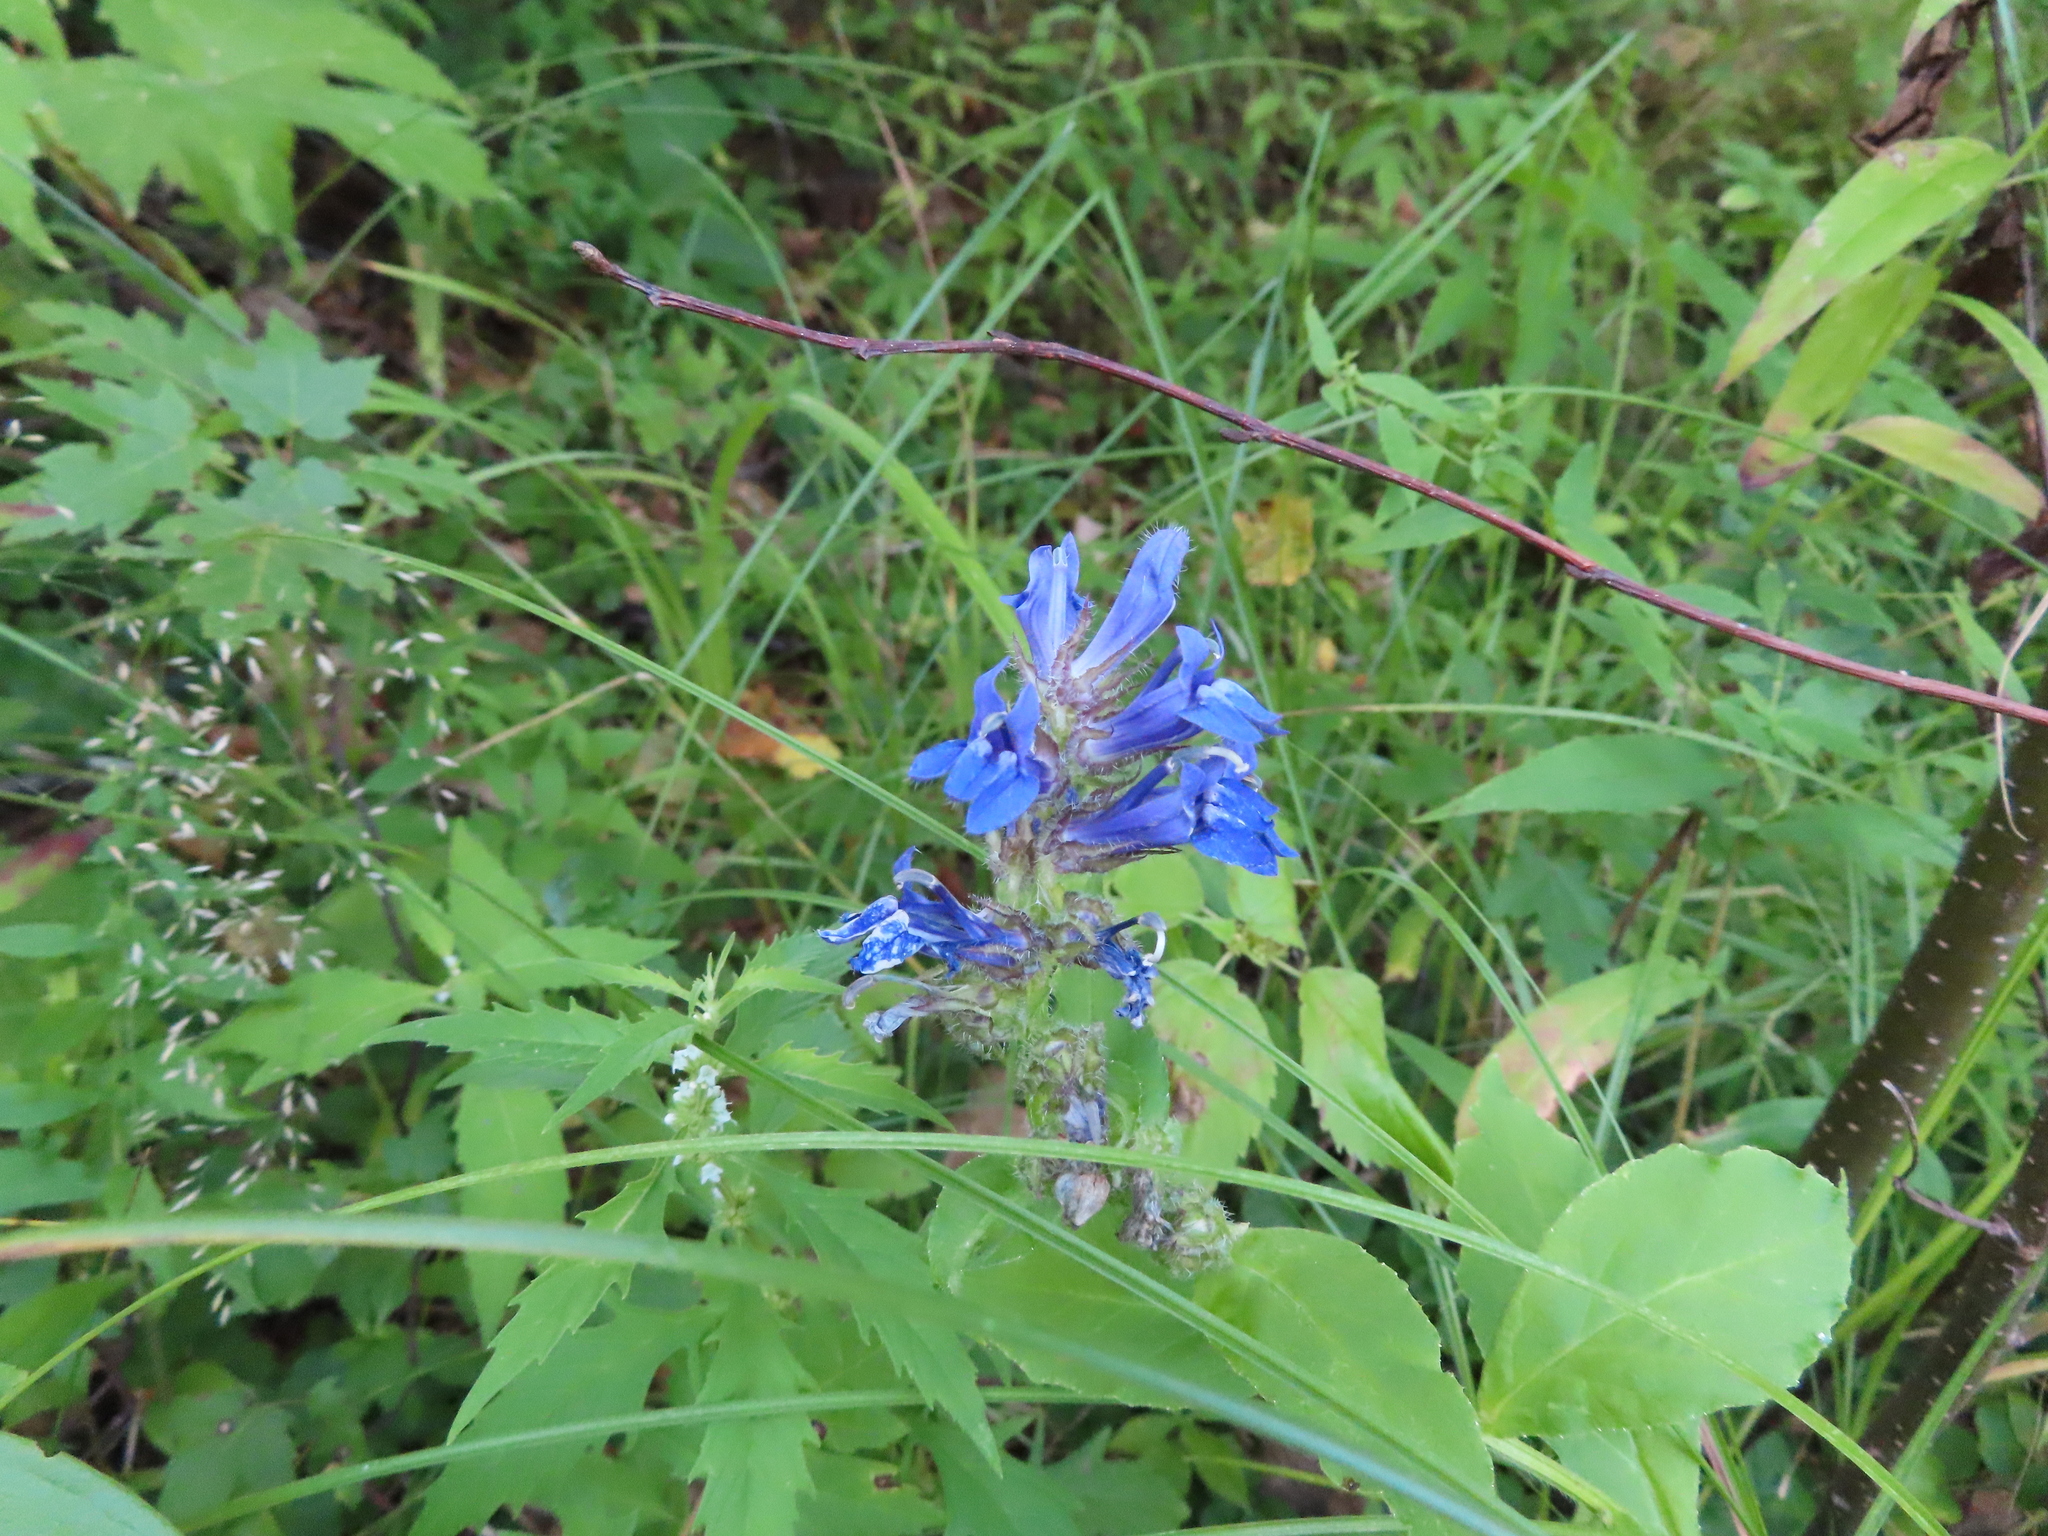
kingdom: Plantae
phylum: Tracheophyta
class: Magnoliopsida
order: Asterales
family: Campanulaceae
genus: Lobelia
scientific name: Lobelia siphilitica
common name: Great lobelia
